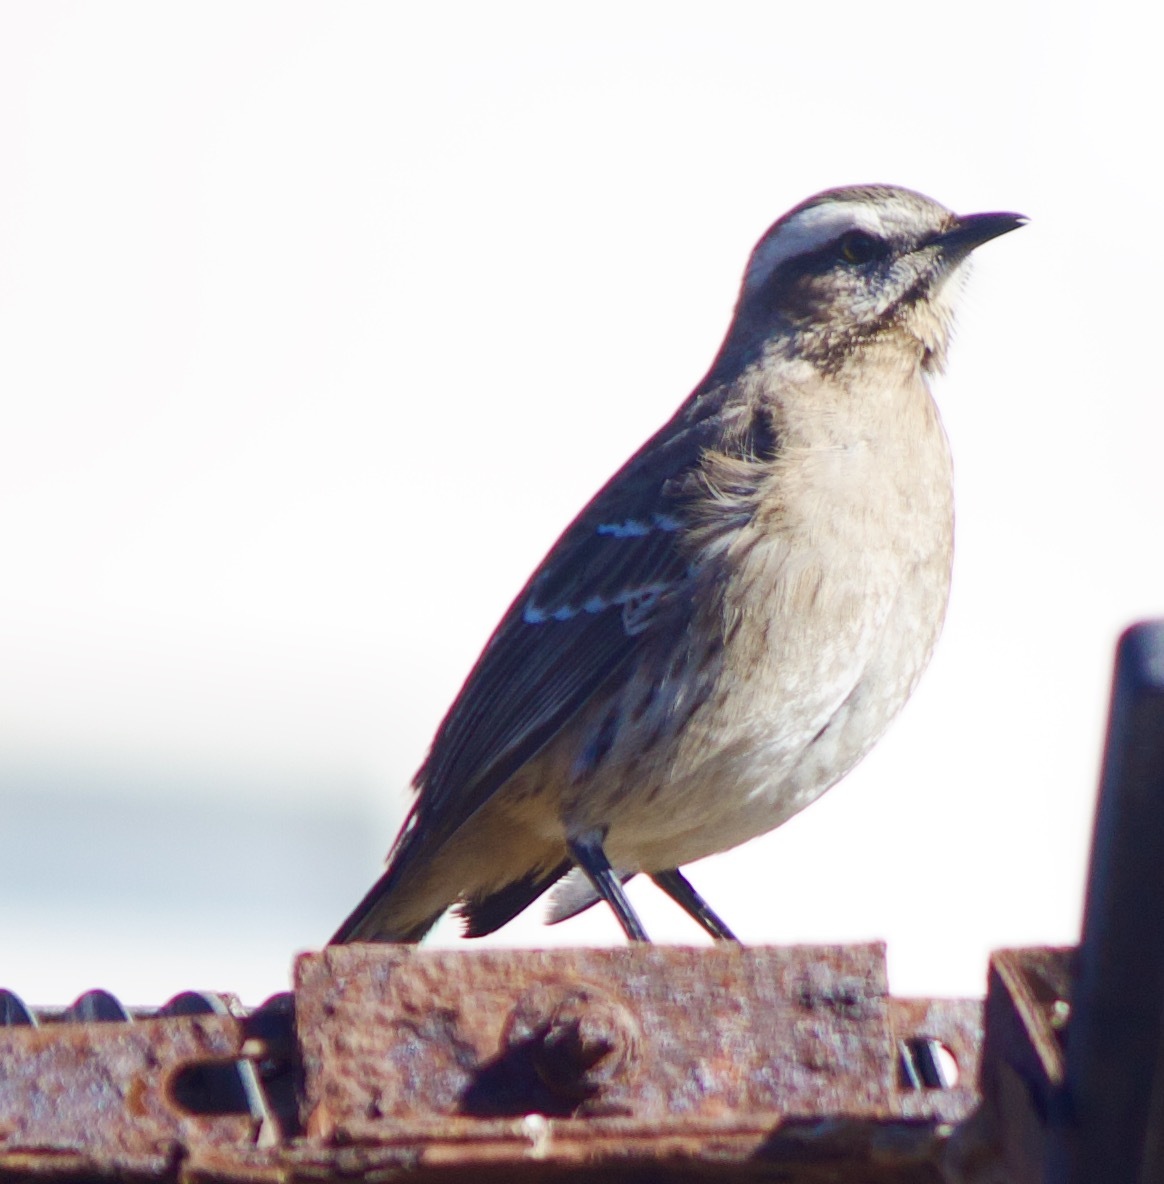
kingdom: Animalia
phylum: Chordata
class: Aves
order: Passeriformes
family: Mimidae
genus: Mimus
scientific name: Mimus thenca
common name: Chilean mockingbird
